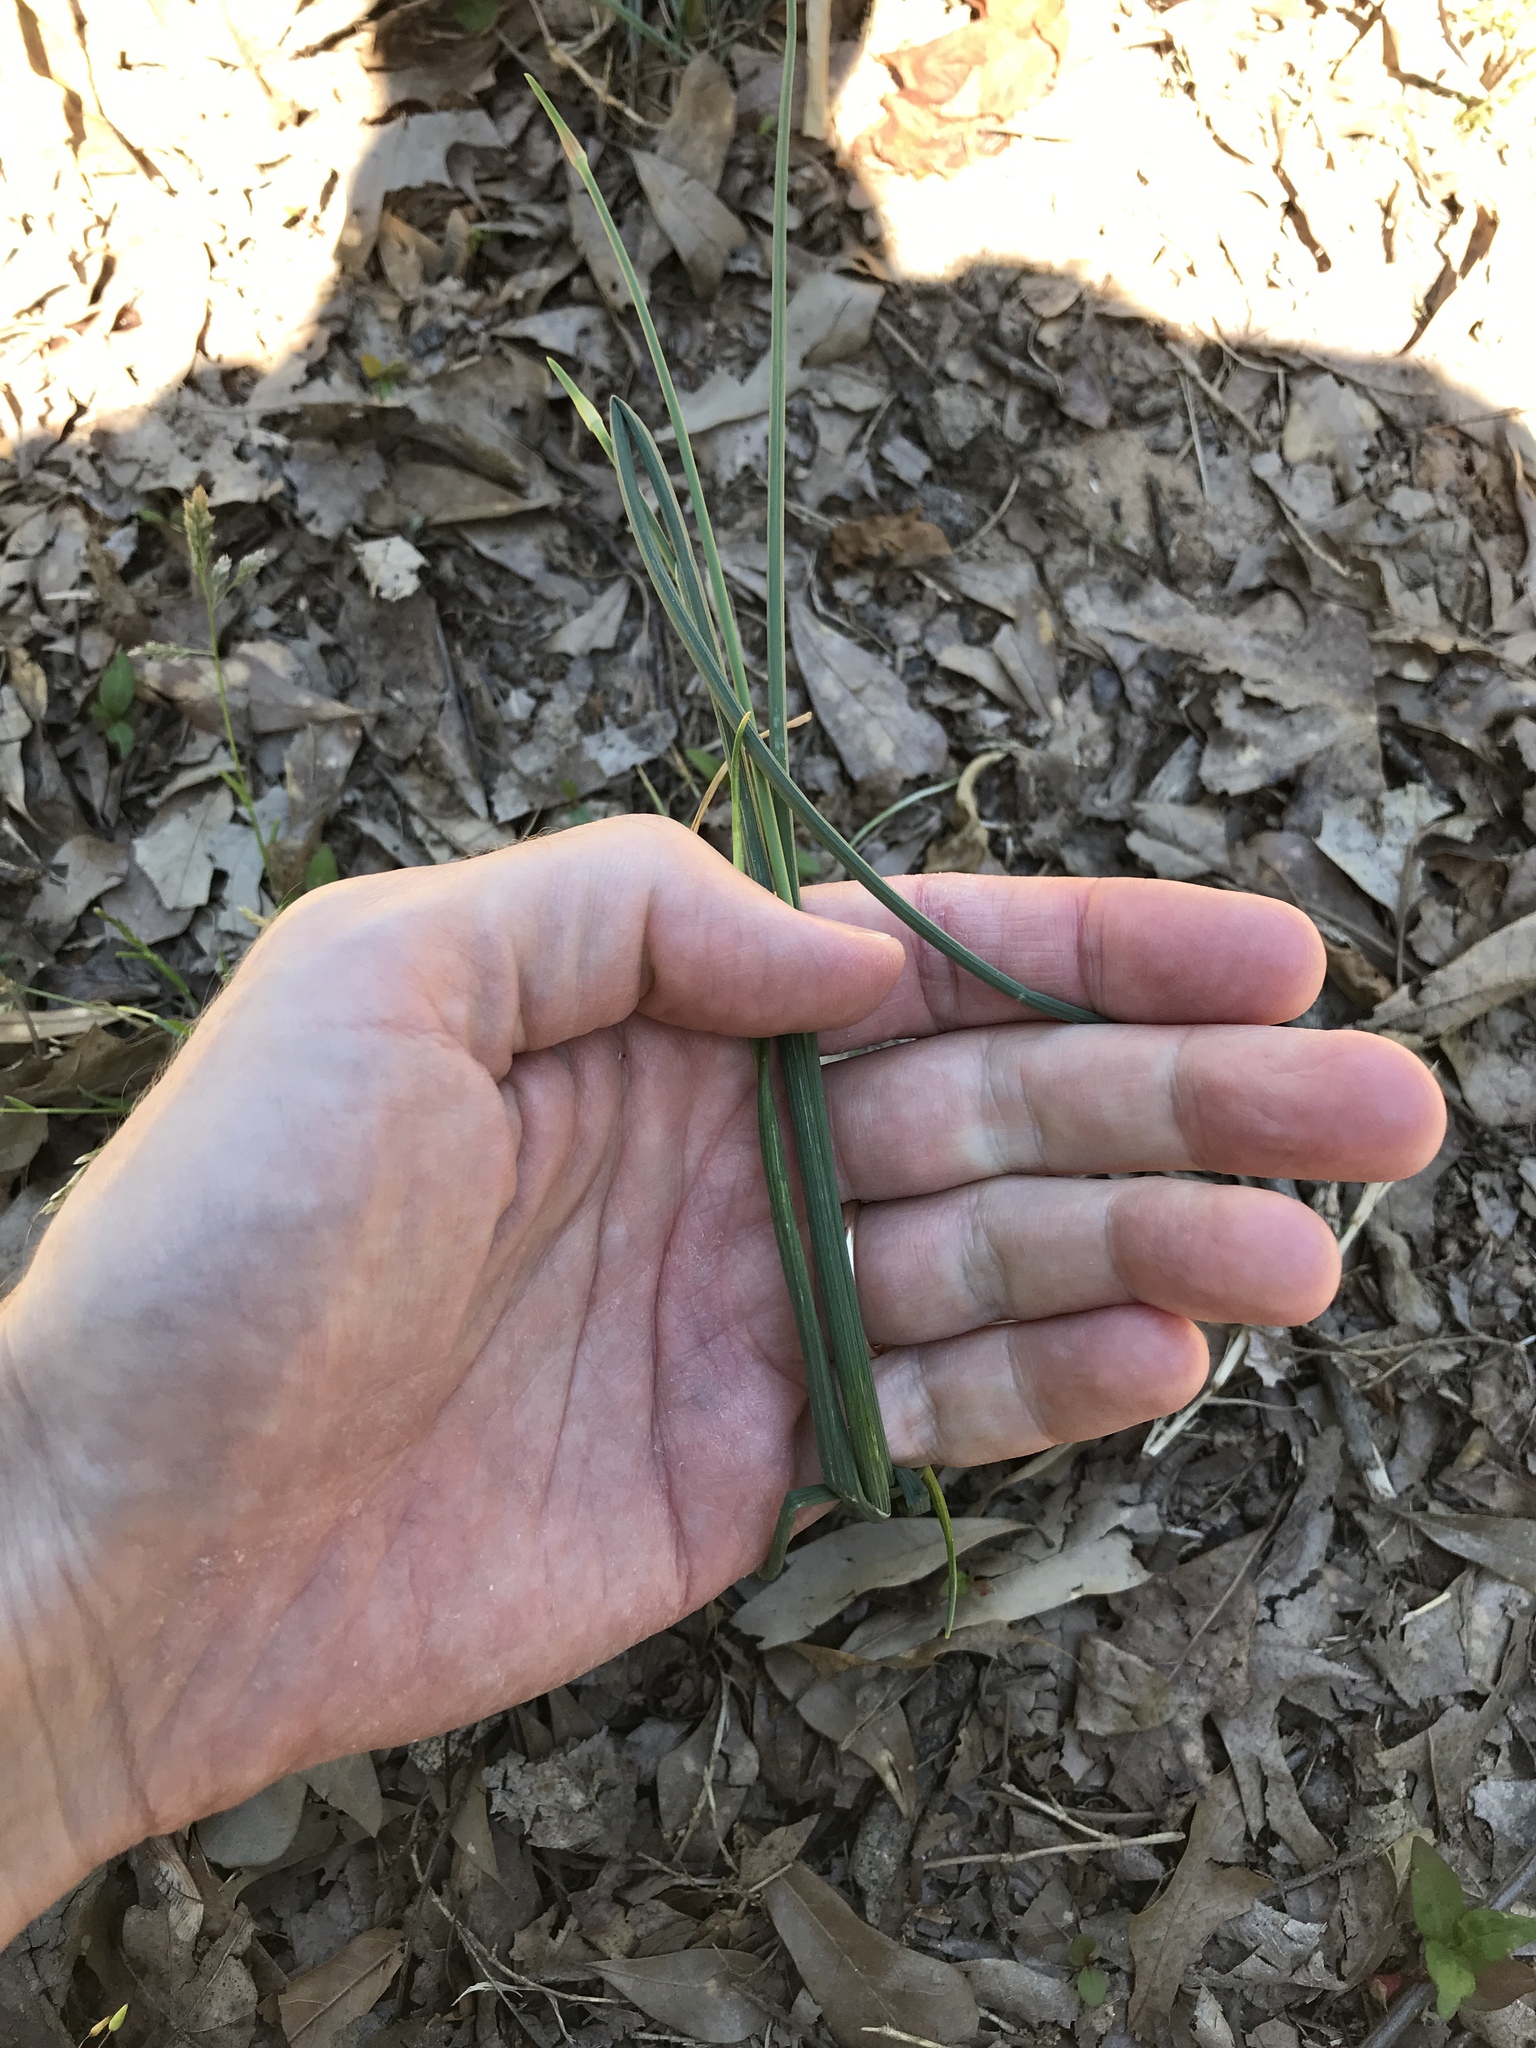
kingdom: Plantae
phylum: Tracheophyta
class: Liliopsida
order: Asparagales
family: Amaryllidaceae
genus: Allium
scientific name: Allium vineale
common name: Crow garlic
